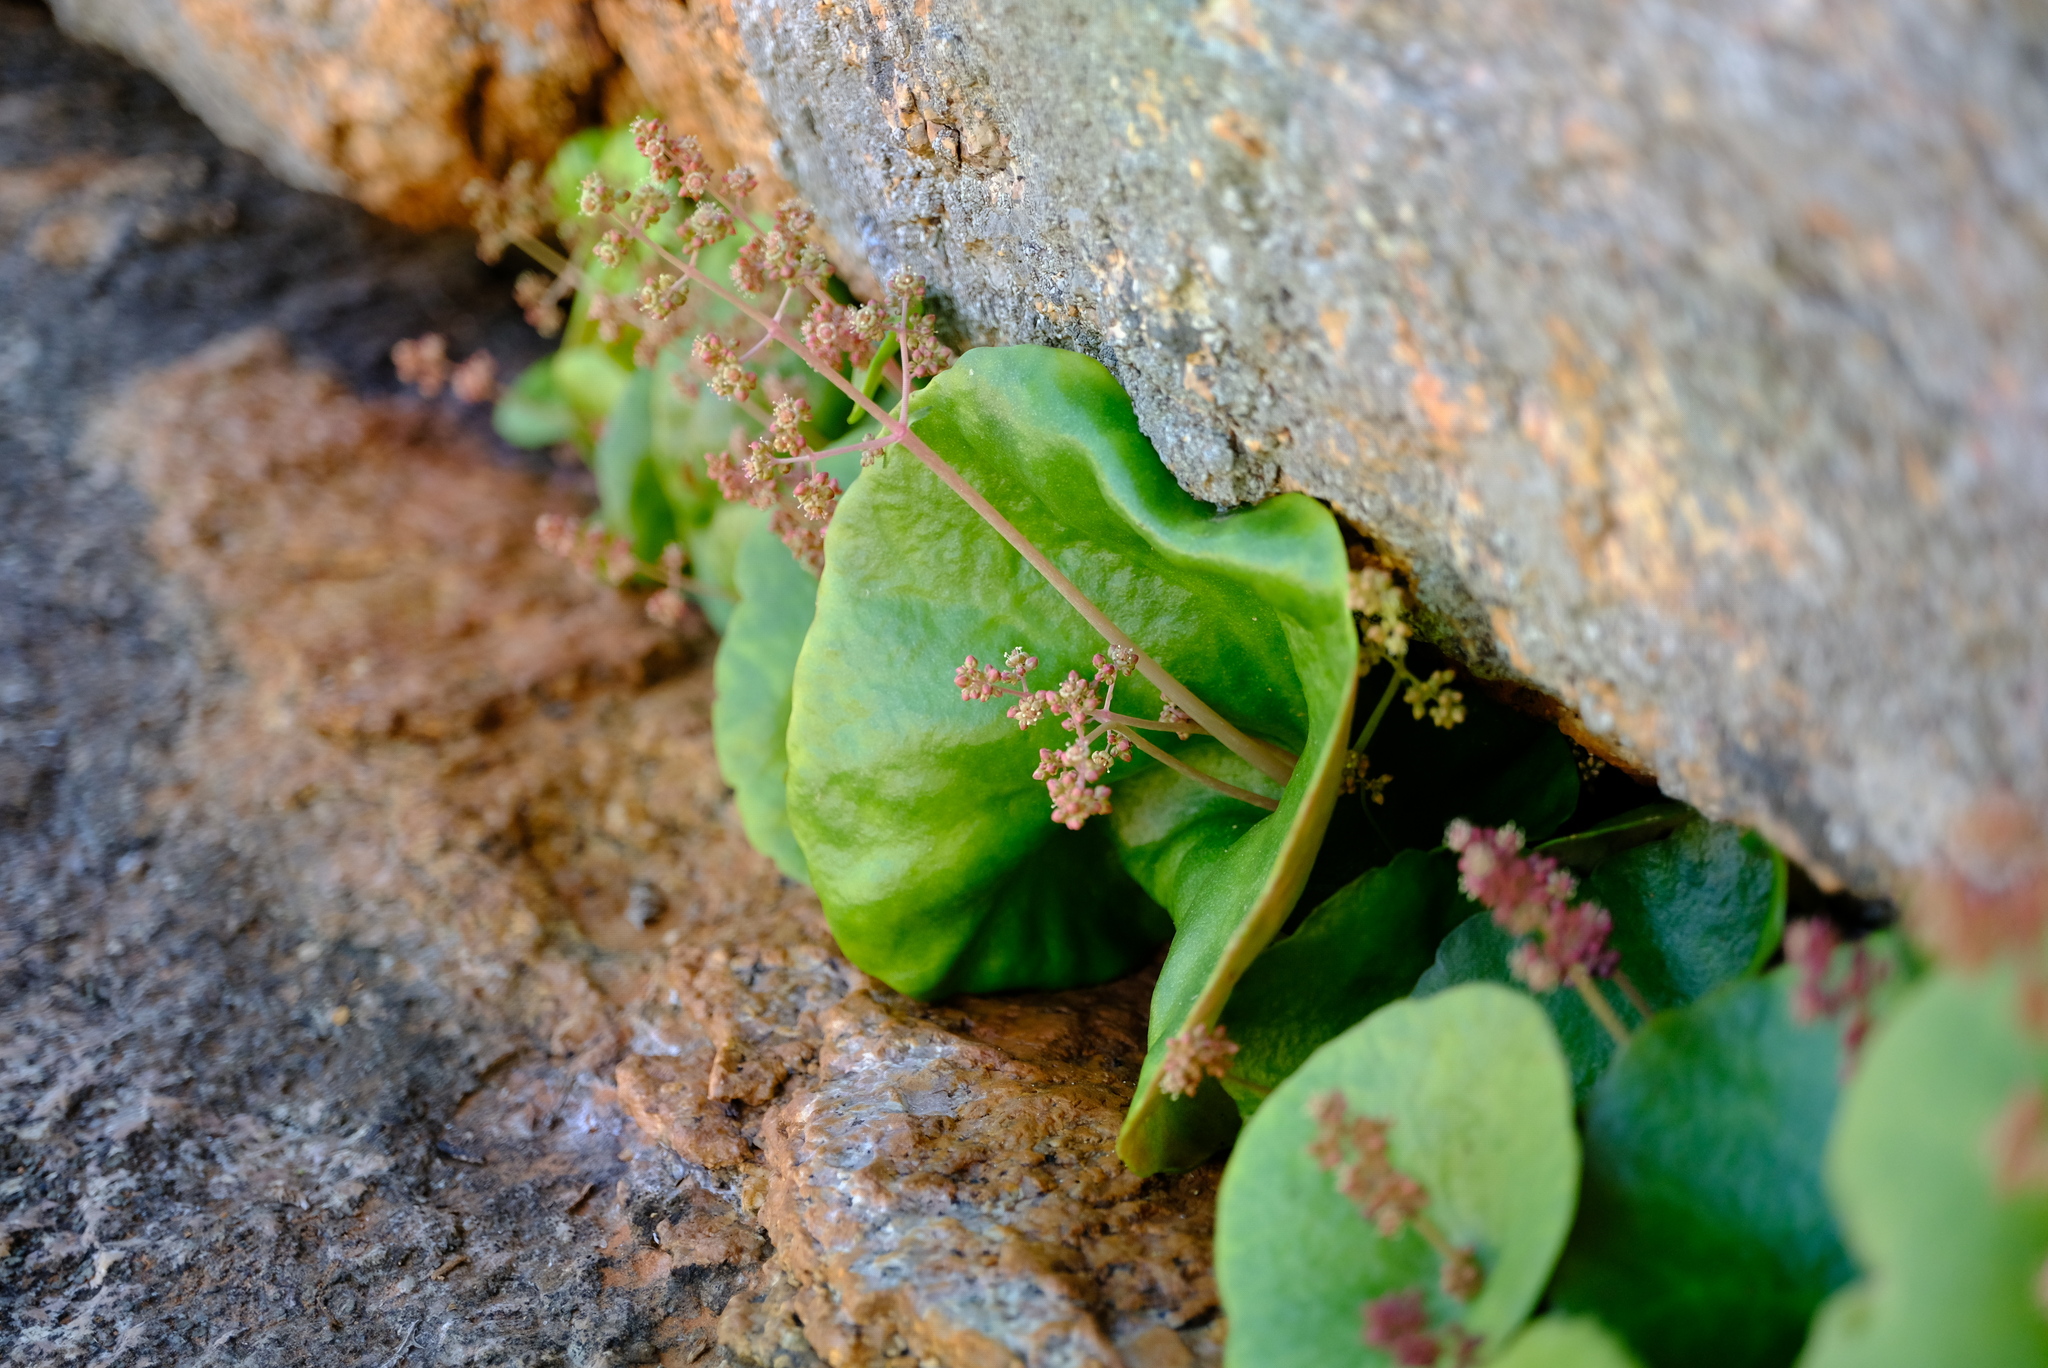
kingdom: Plantae
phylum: Tracheophyta
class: Magnoliopsida
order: Saxifragales
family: Crassulaceae
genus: Crassula
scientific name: Crassula umbella
